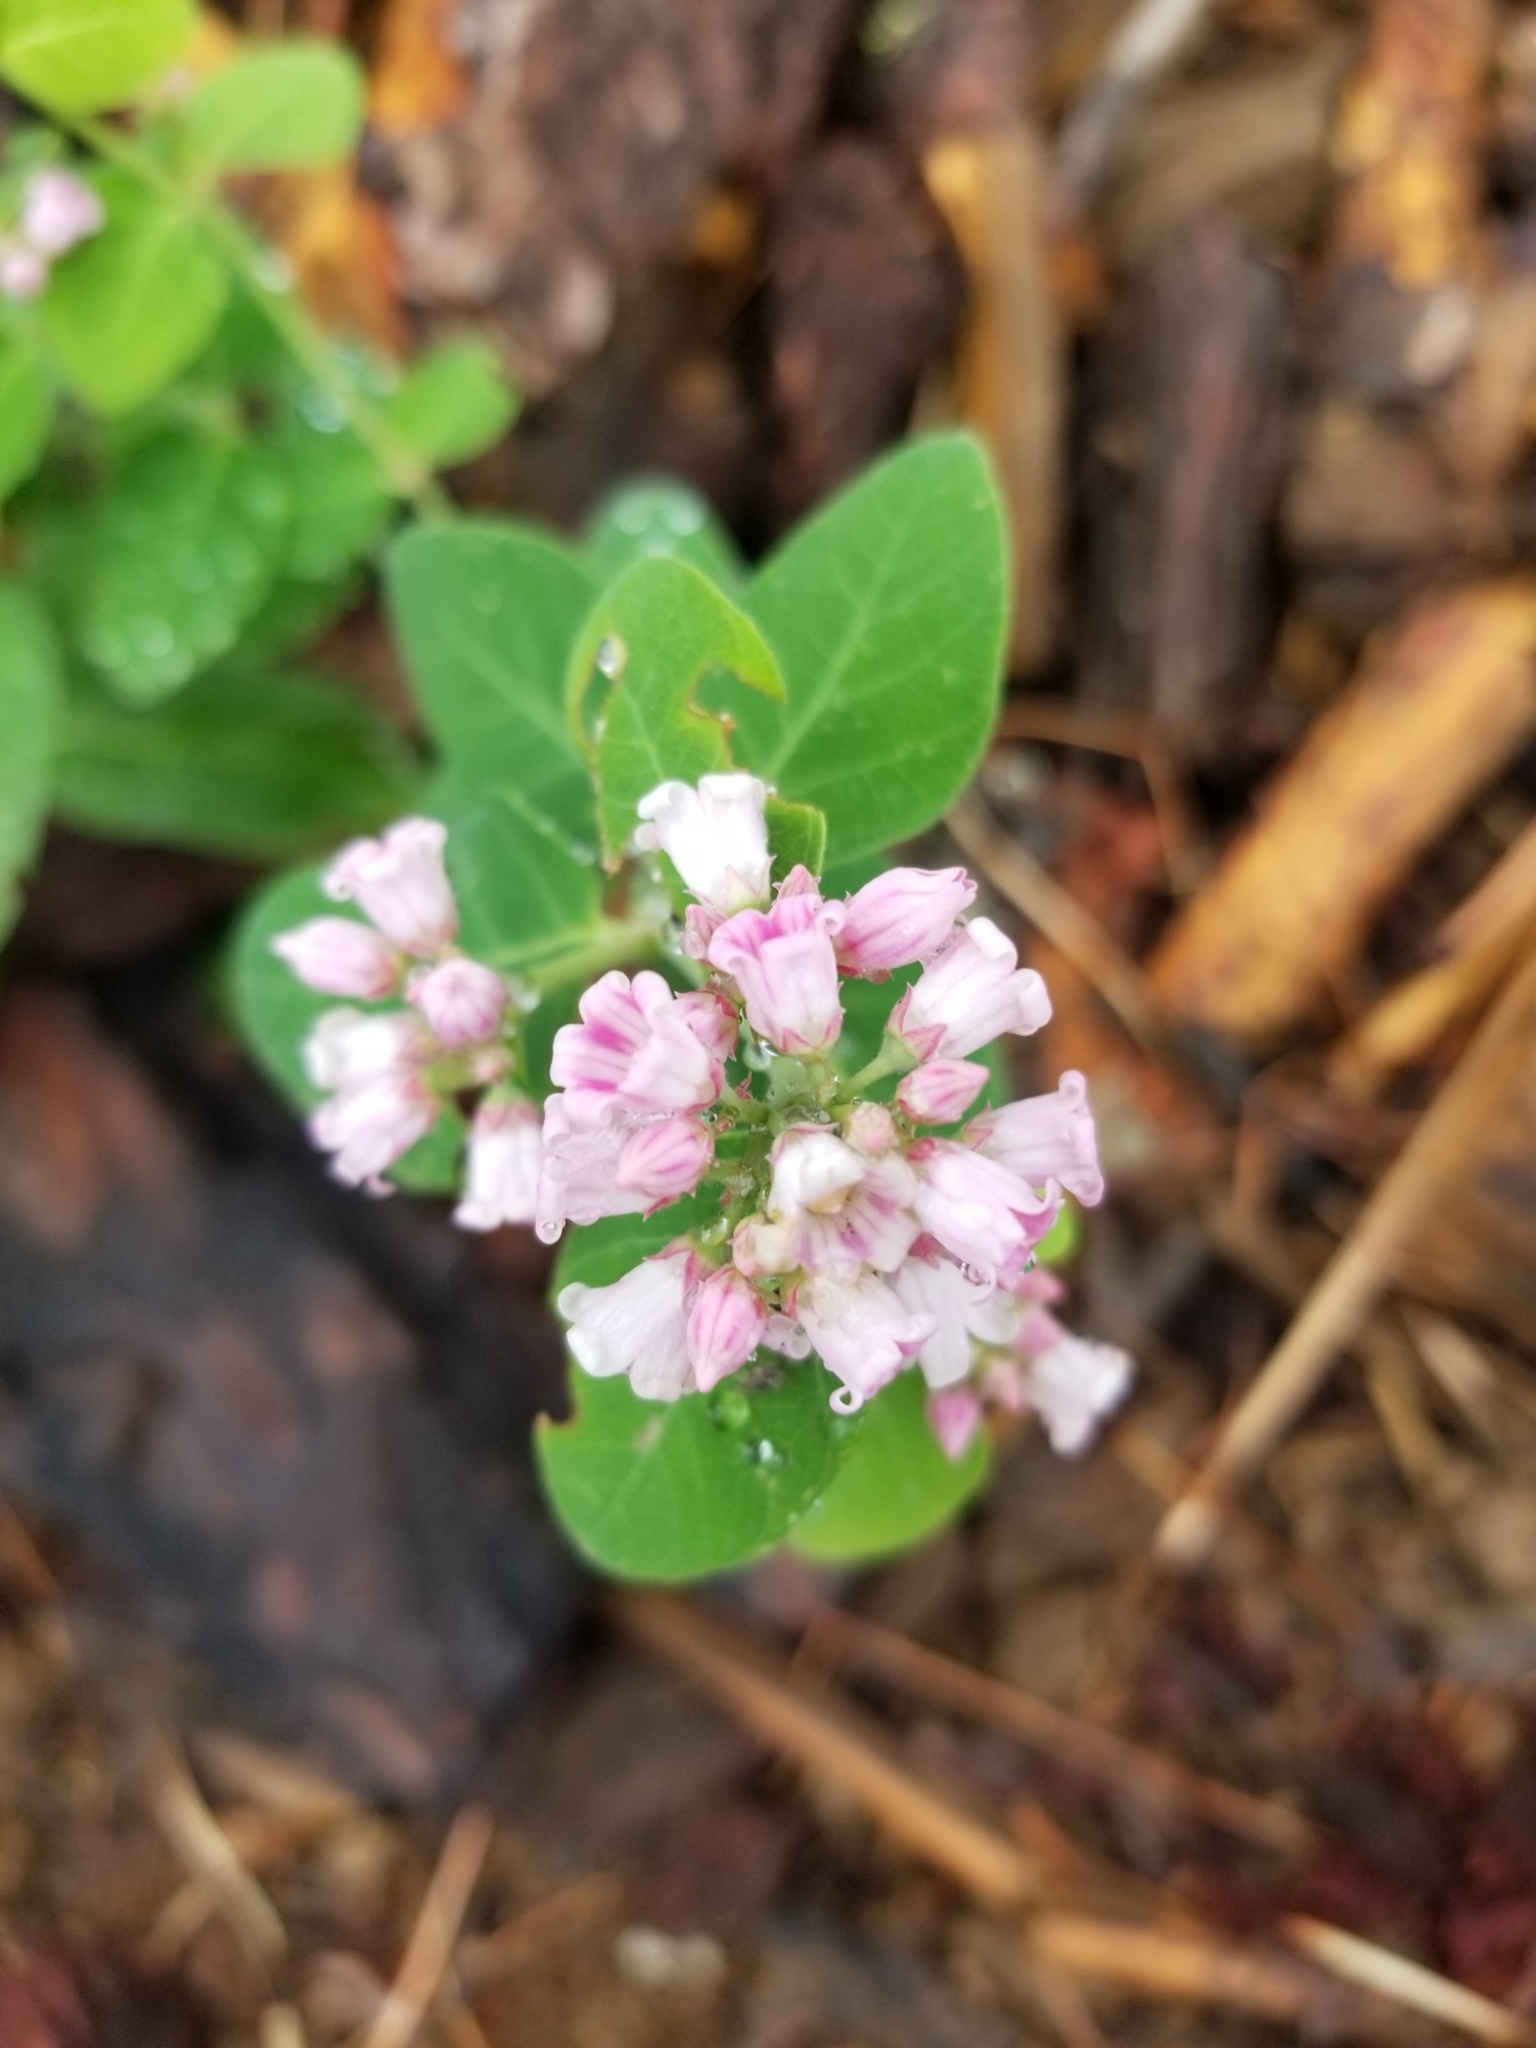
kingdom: Plantae
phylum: Tracheophyta
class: Magnoliopsida
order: Gentianales
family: Apocynaceae
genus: Apocynum
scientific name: Apocynum androsaemifolium
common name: Spreading dogbane
